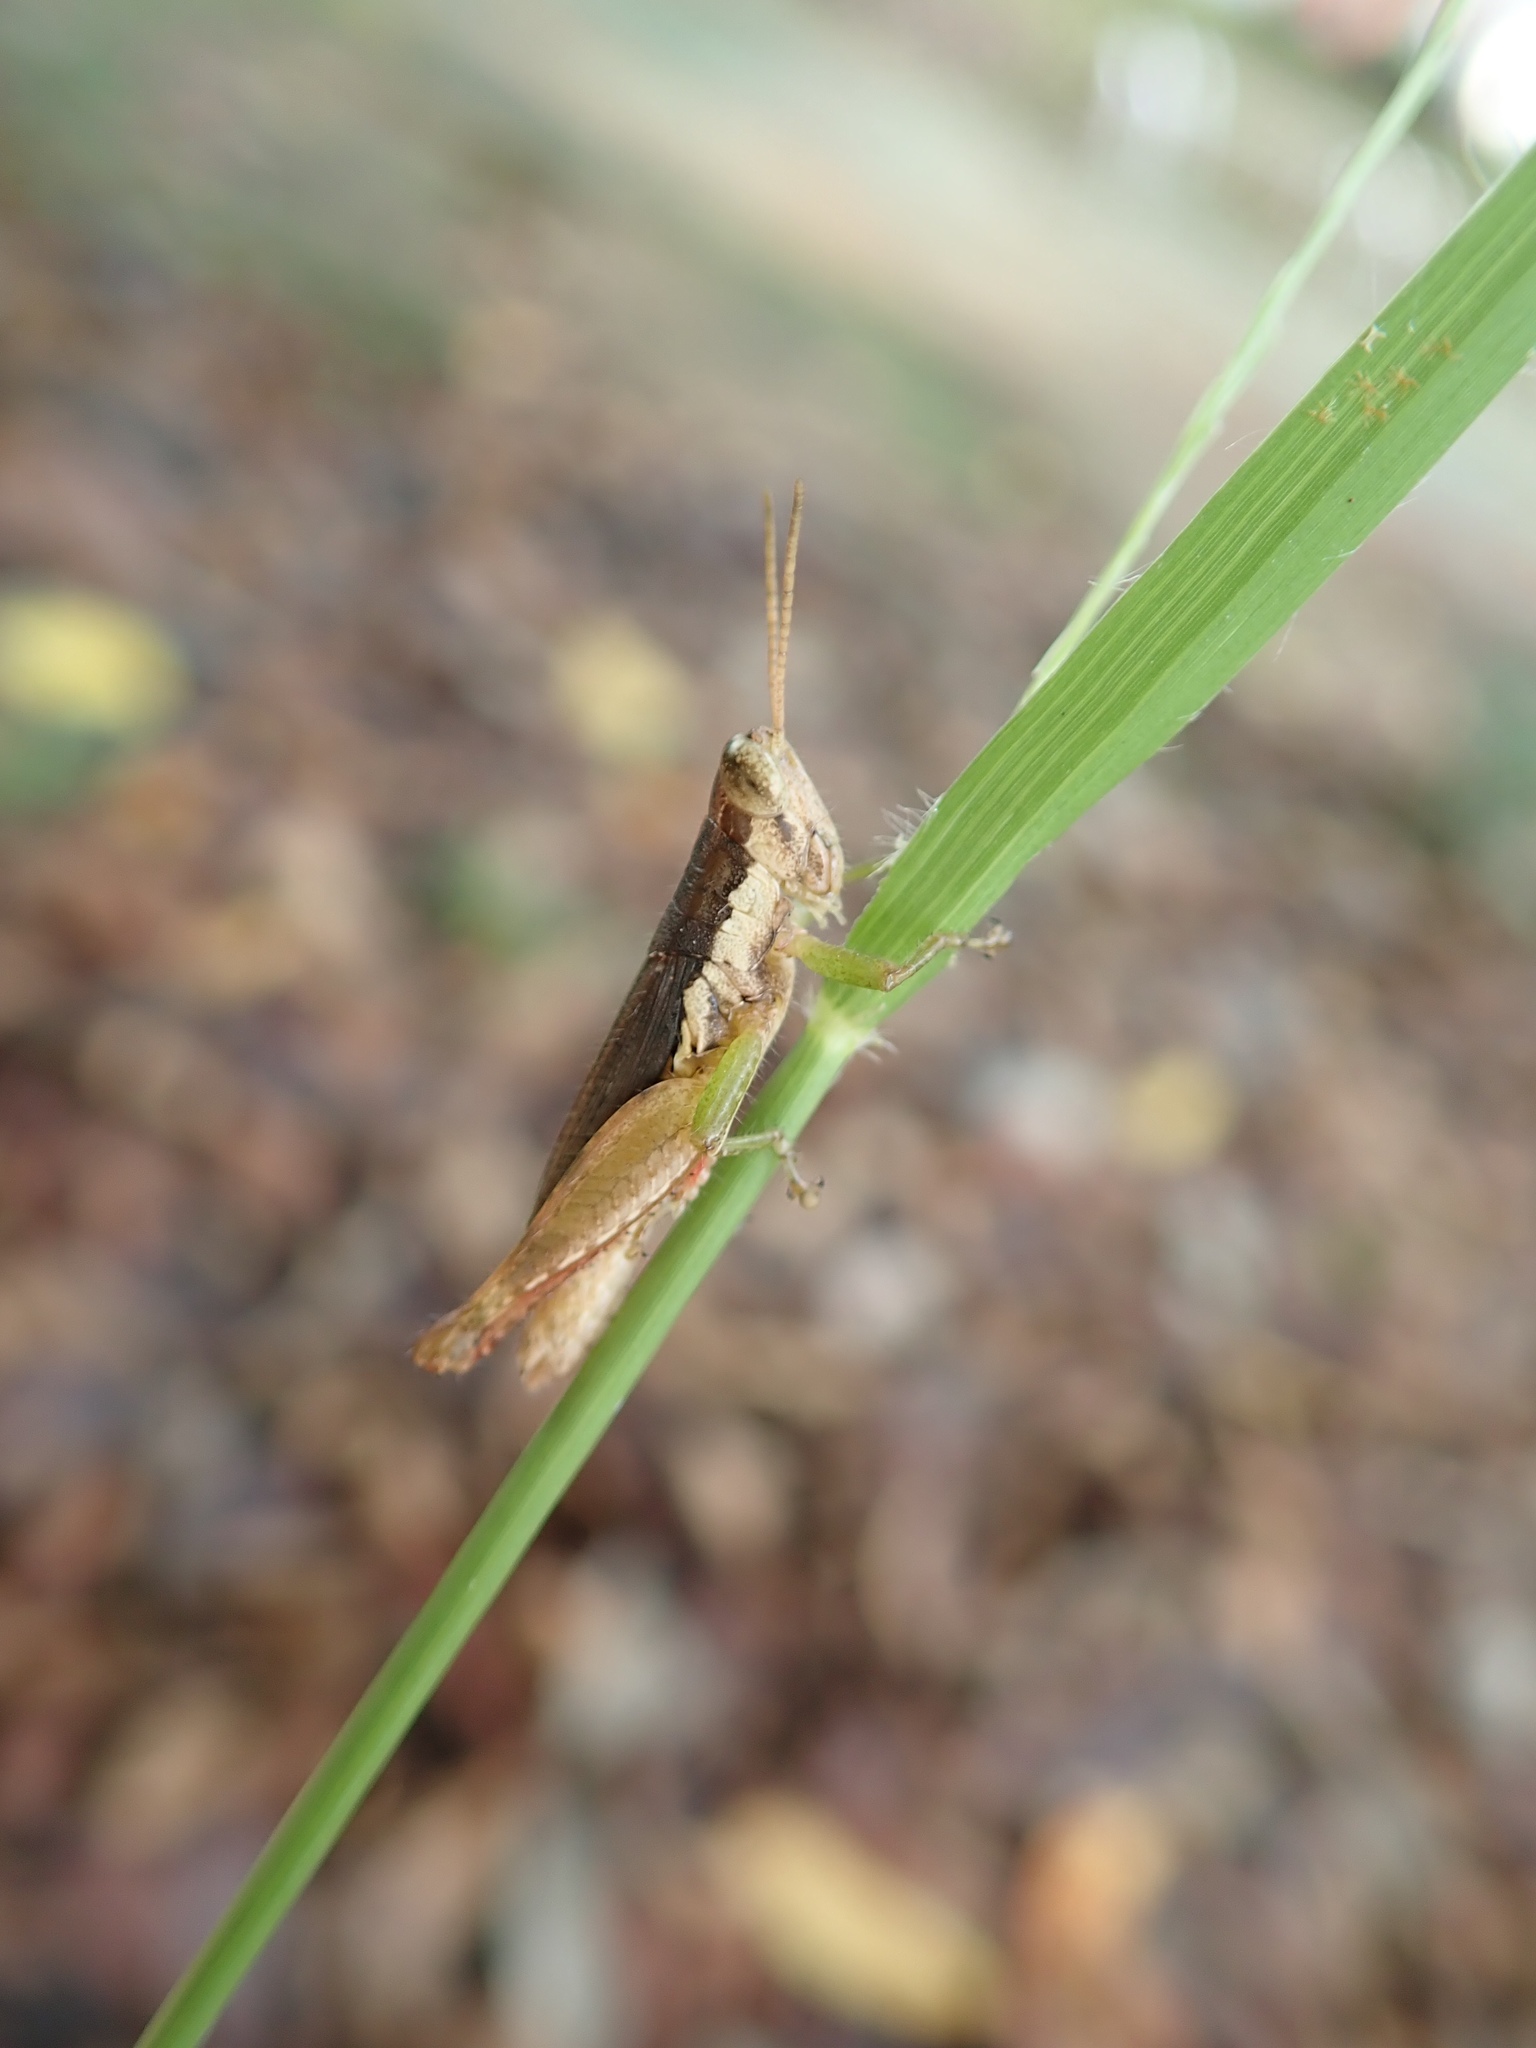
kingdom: Animalia
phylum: Arthropoda
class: Insecta
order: Orthoptera
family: Acrididae
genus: Pseudoxya
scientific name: Pseudoxya diminuta
